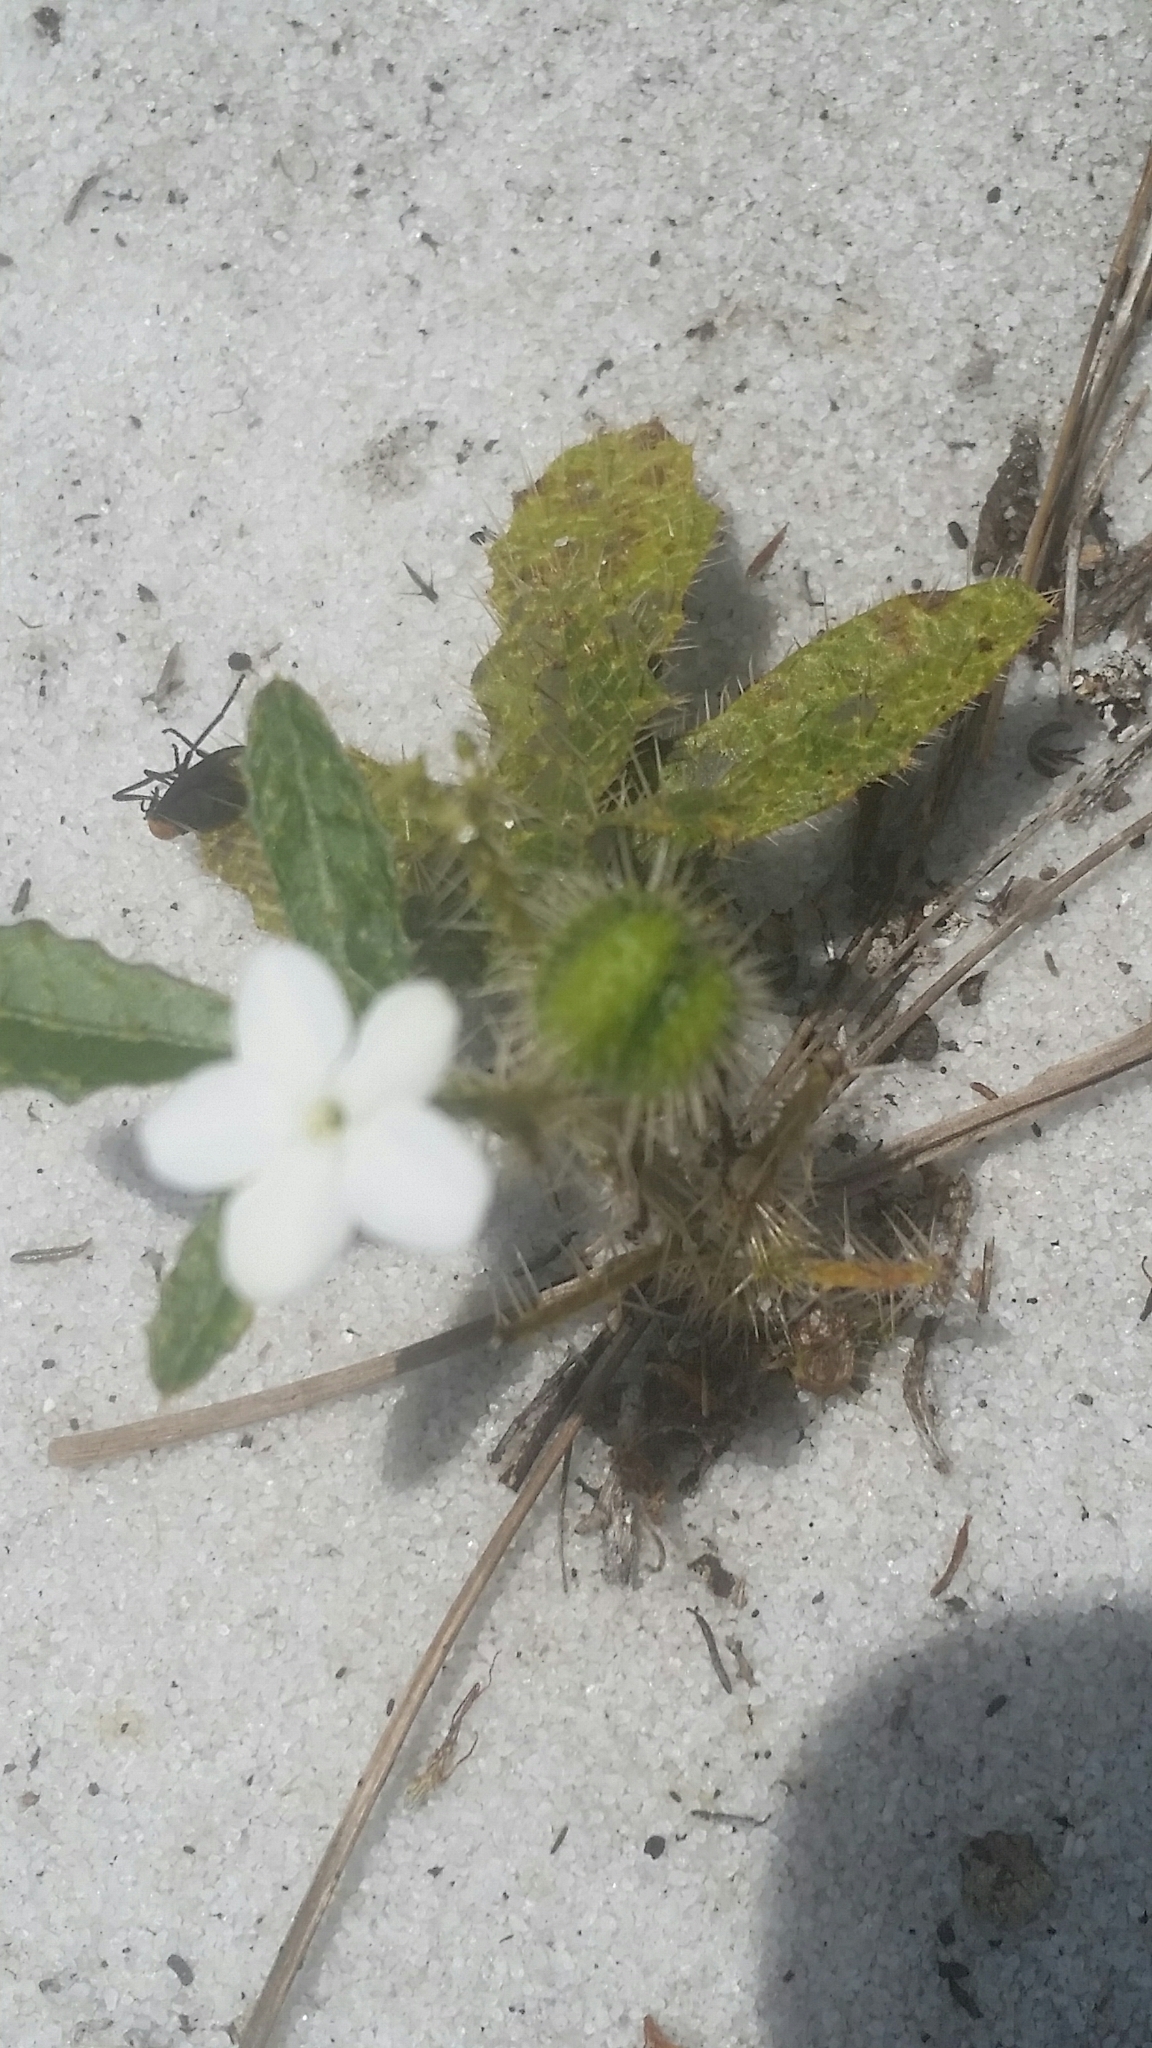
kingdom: Plantae
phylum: Tracheophyta
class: Magnoliopsida
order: Malpighiales
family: Euphorbiaceae
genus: Cnidoscolus
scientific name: Cnidoscolus stimulosus
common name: Bull-nettle
